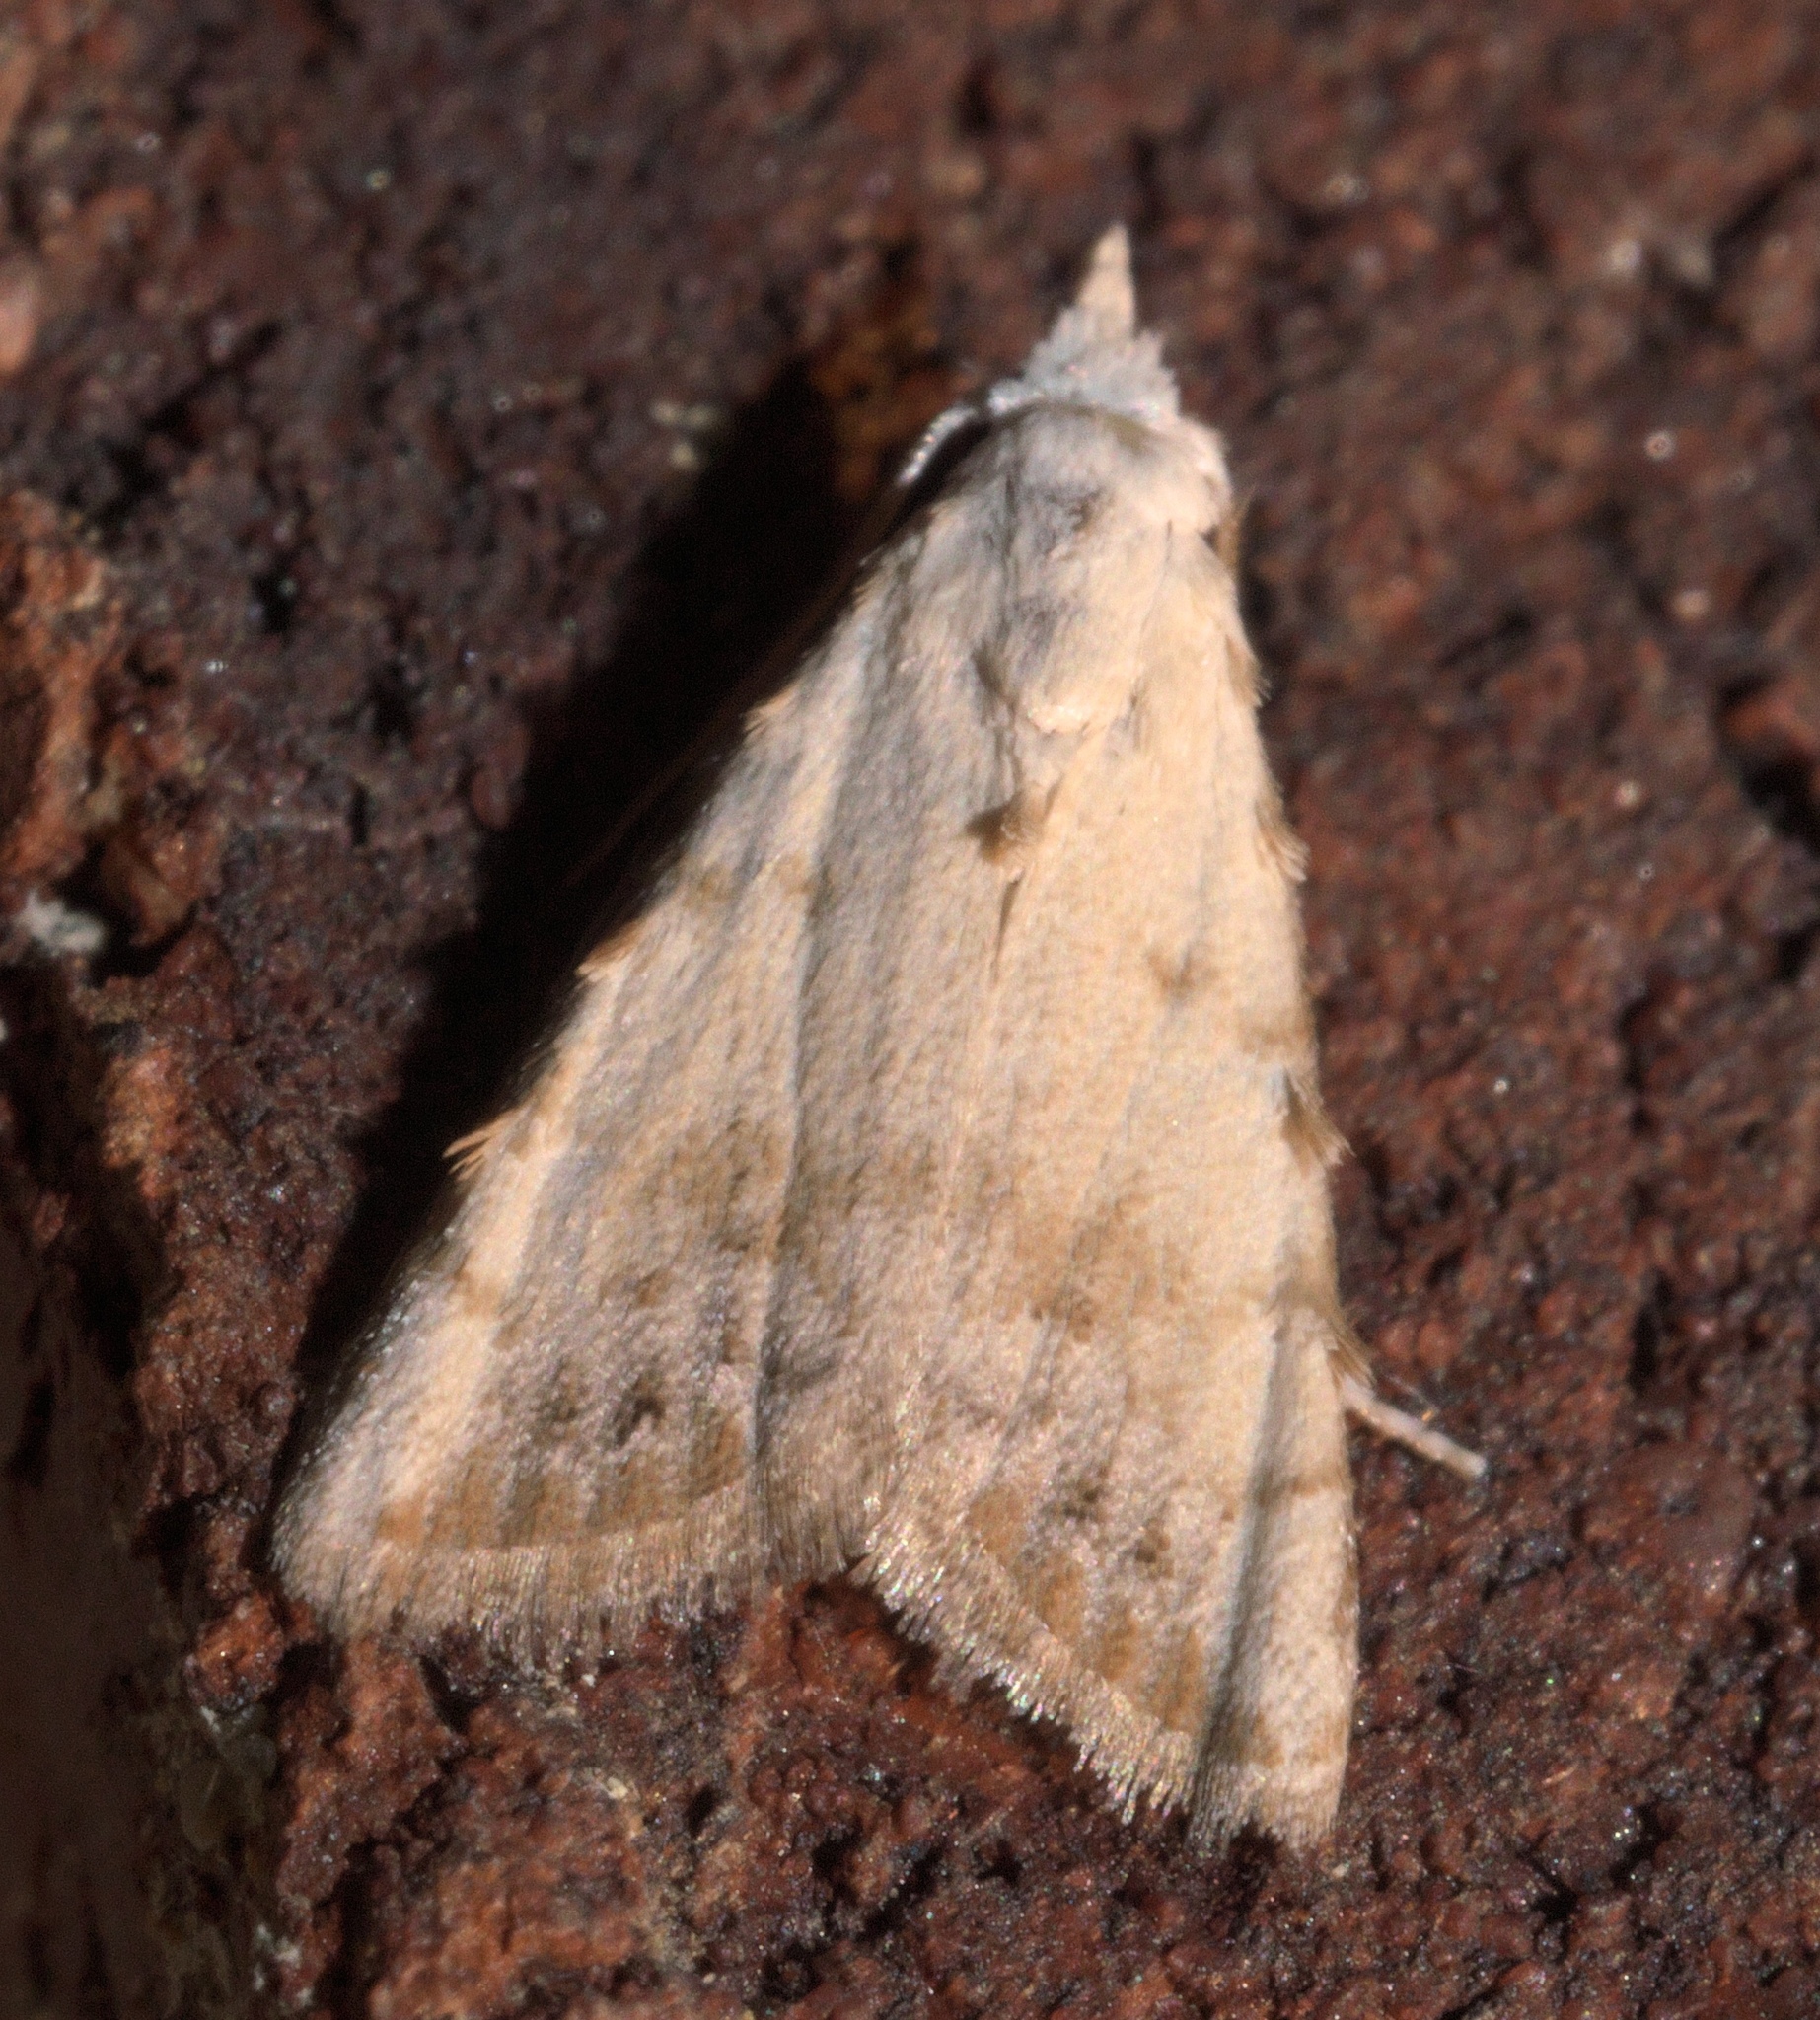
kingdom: Animalia
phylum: Arthropoda
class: Insecta
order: Lepidoptera
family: Nolidae
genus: Nola
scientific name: Nola cereella
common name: Sorghum webworm moth
